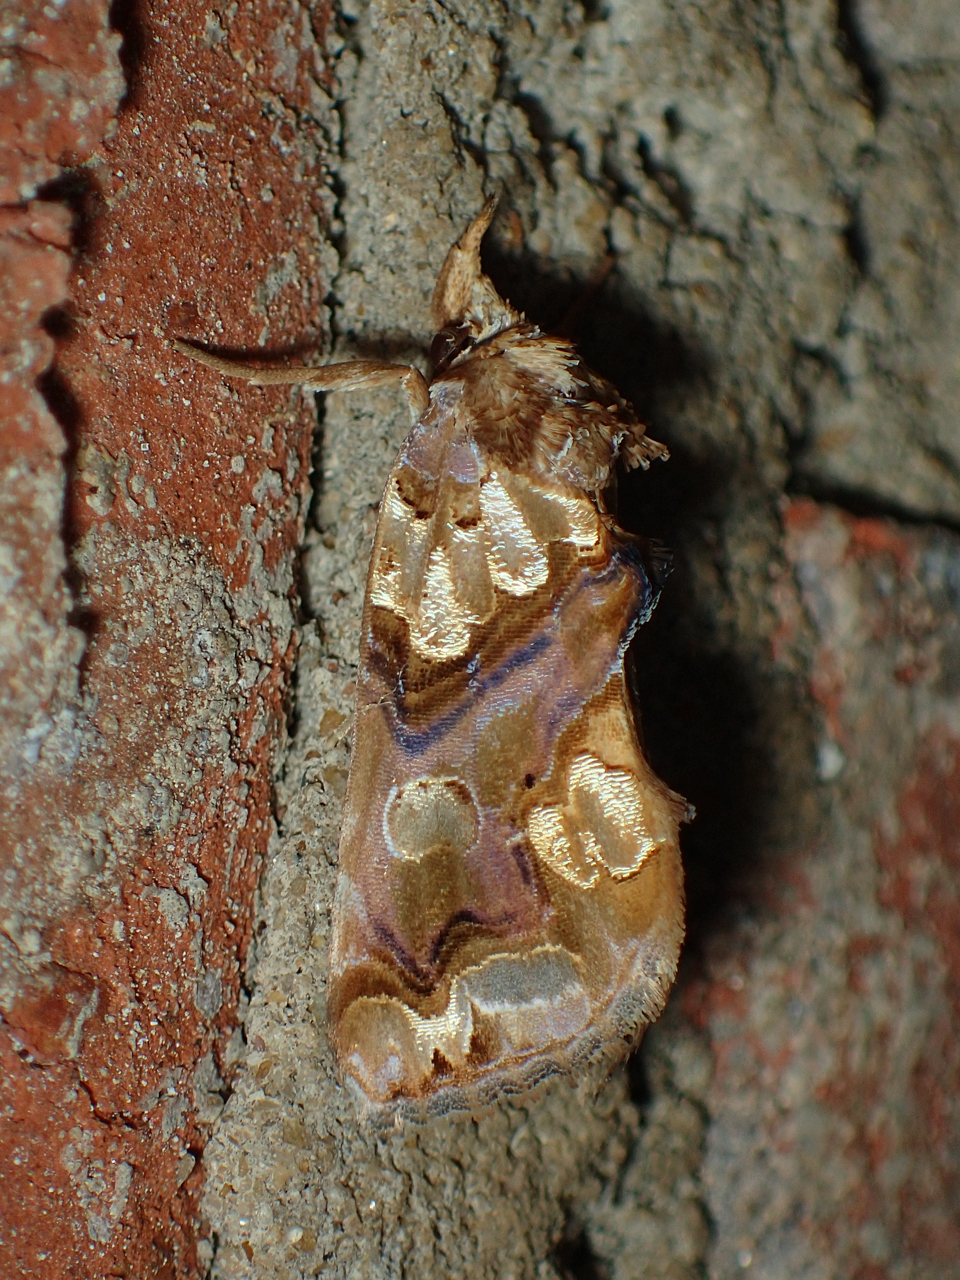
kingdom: Animalia
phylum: Arthropoda
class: Insecta
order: Lepidoptera
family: Erebidae
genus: Plusiodonta
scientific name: Plusiodonta compressipalpis
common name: Moonseed moth
